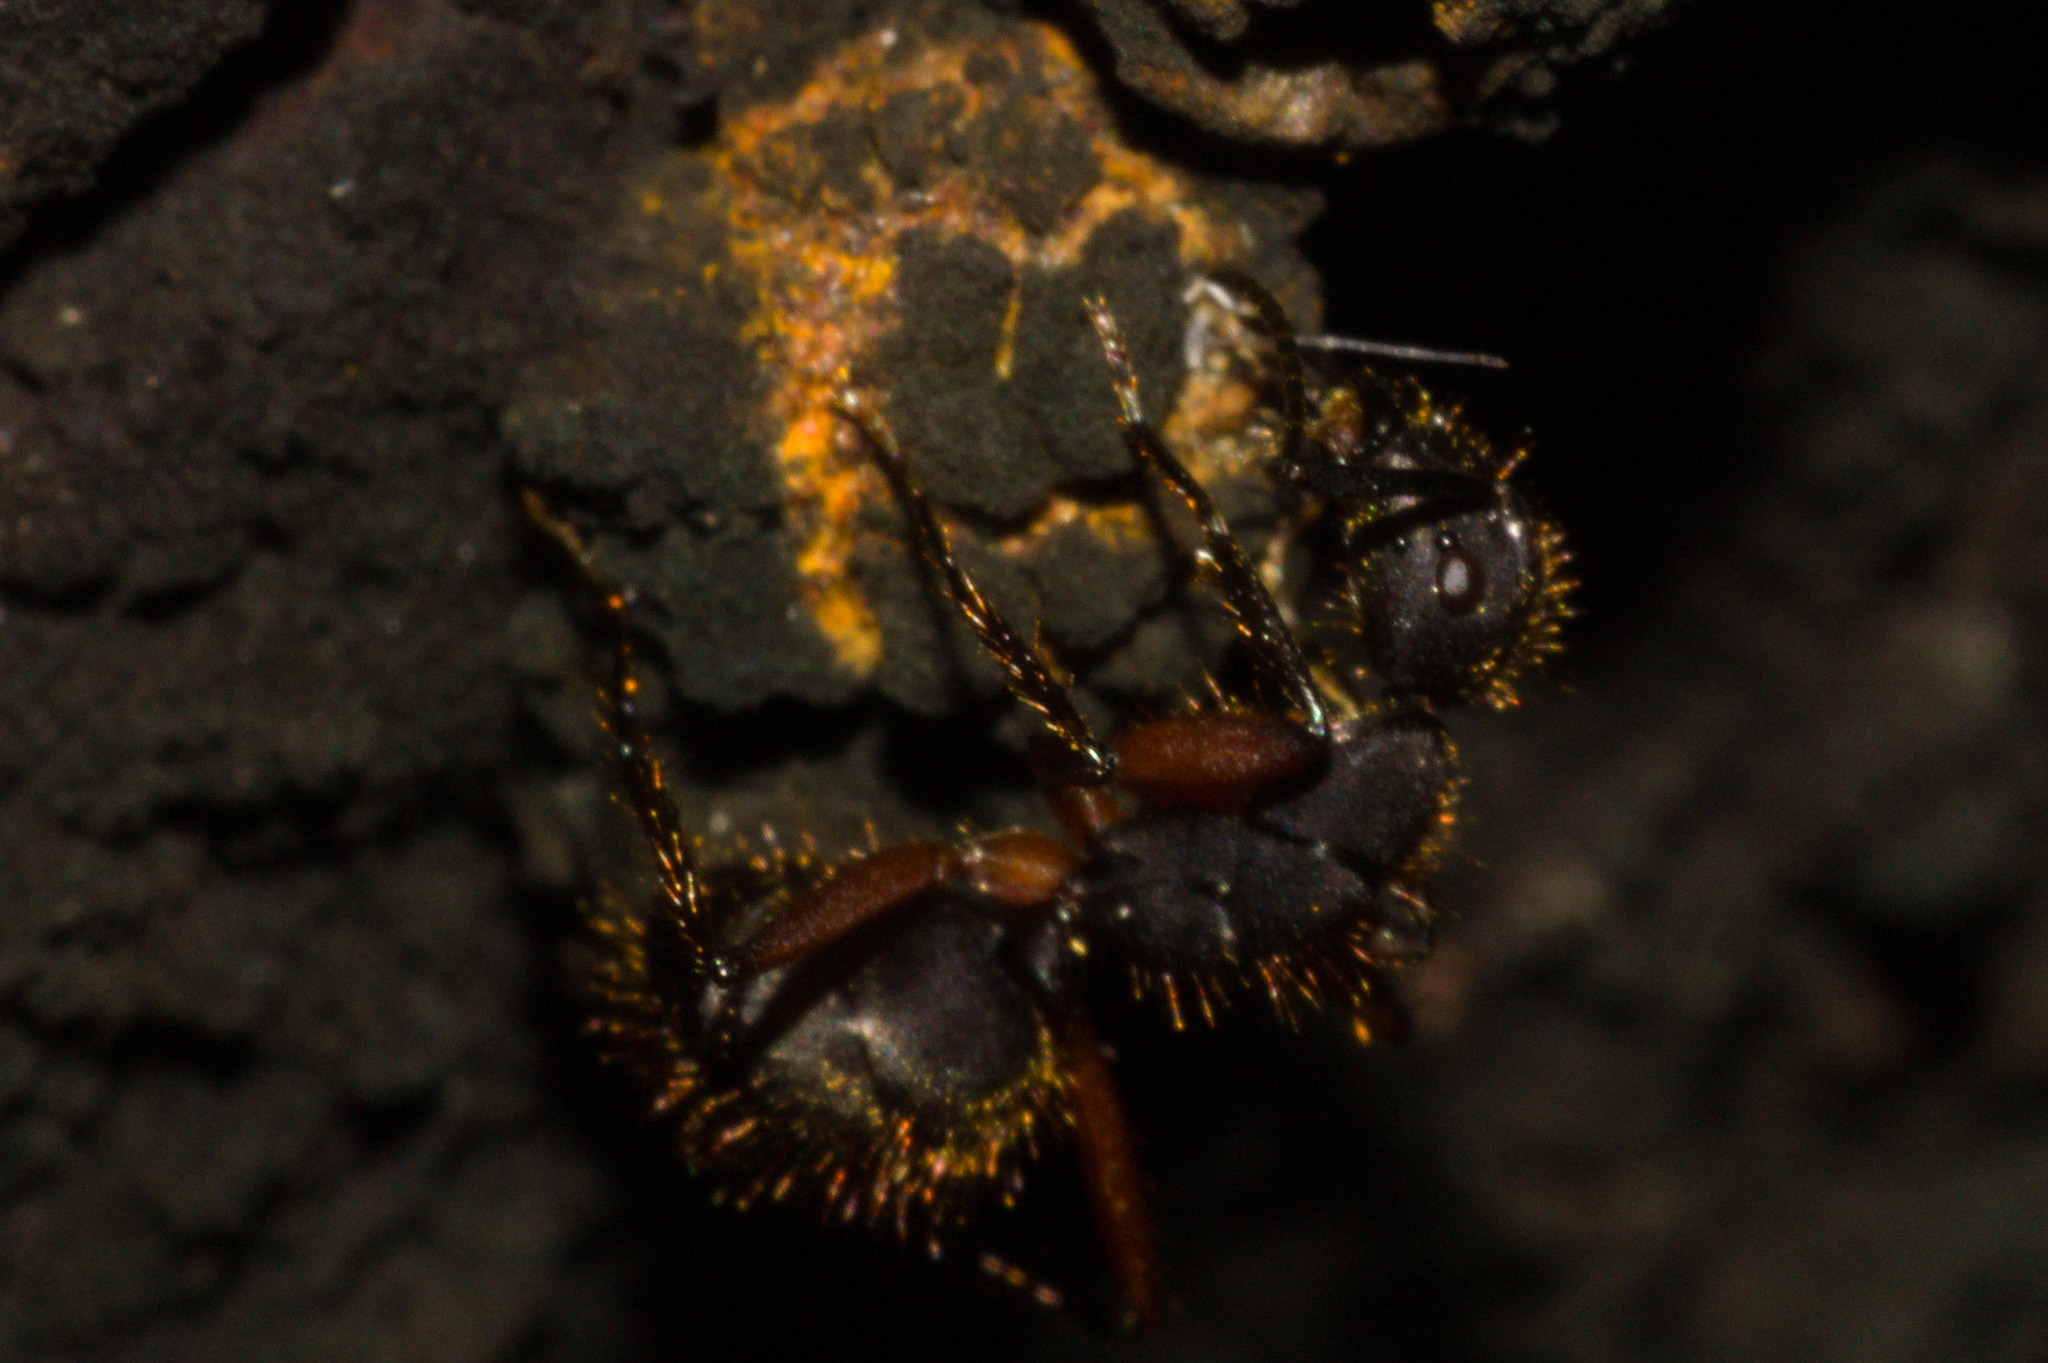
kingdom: Animalia
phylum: Arthropoda
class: Insecta
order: Hymenoptera
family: Formicidae
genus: Camponotus
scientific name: Camponotus rufipes
